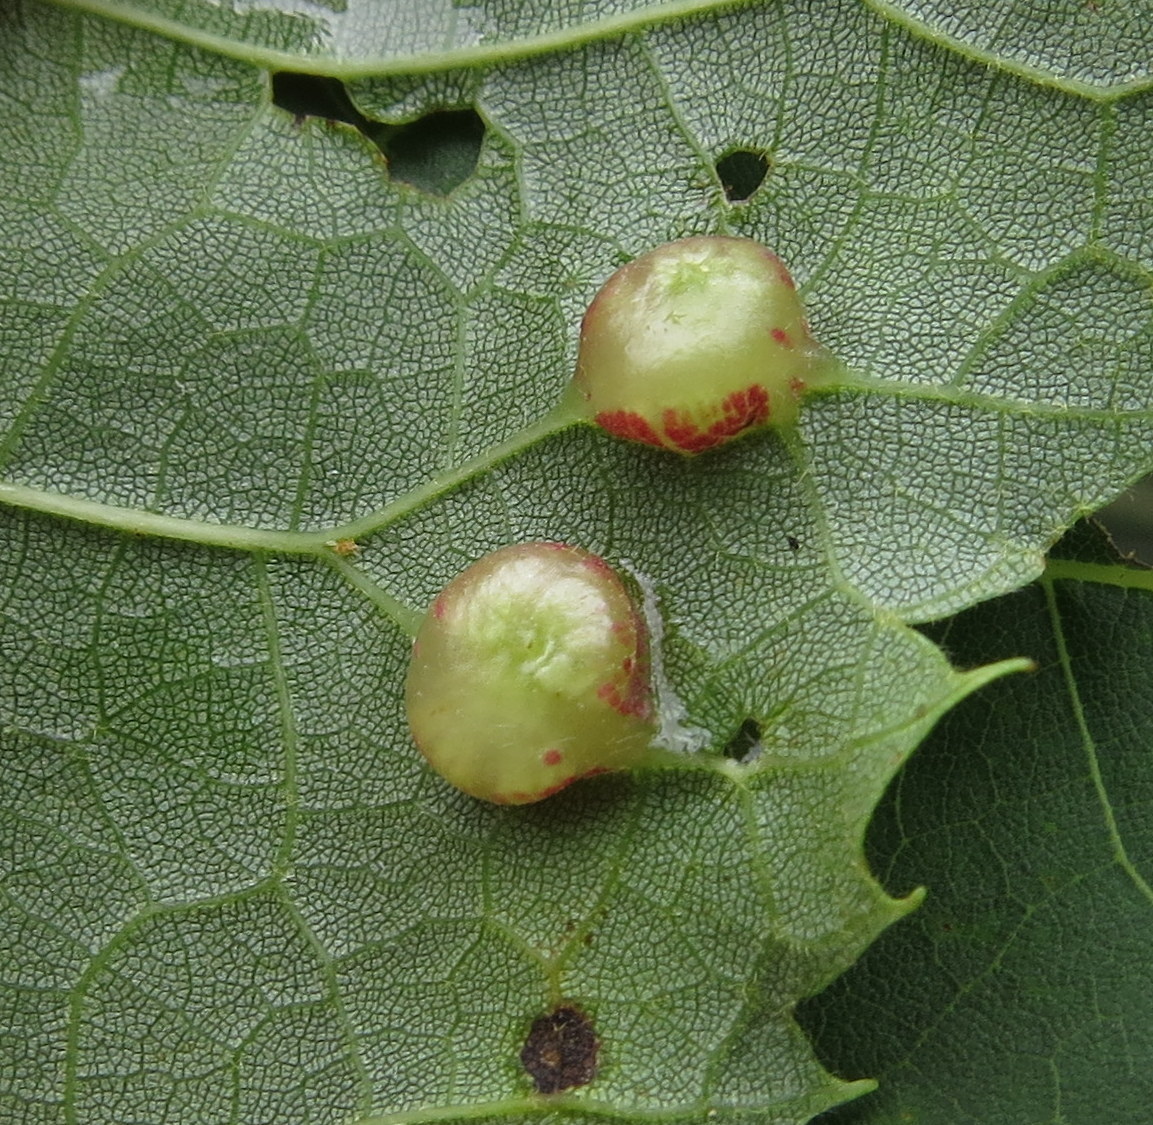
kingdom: Animalia
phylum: Arthropoda
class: Insecta
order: Diptera
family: Cecidomyiidae
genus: Contarinia
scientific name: Contarinia verrucicola
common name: Linden wart gall midge
